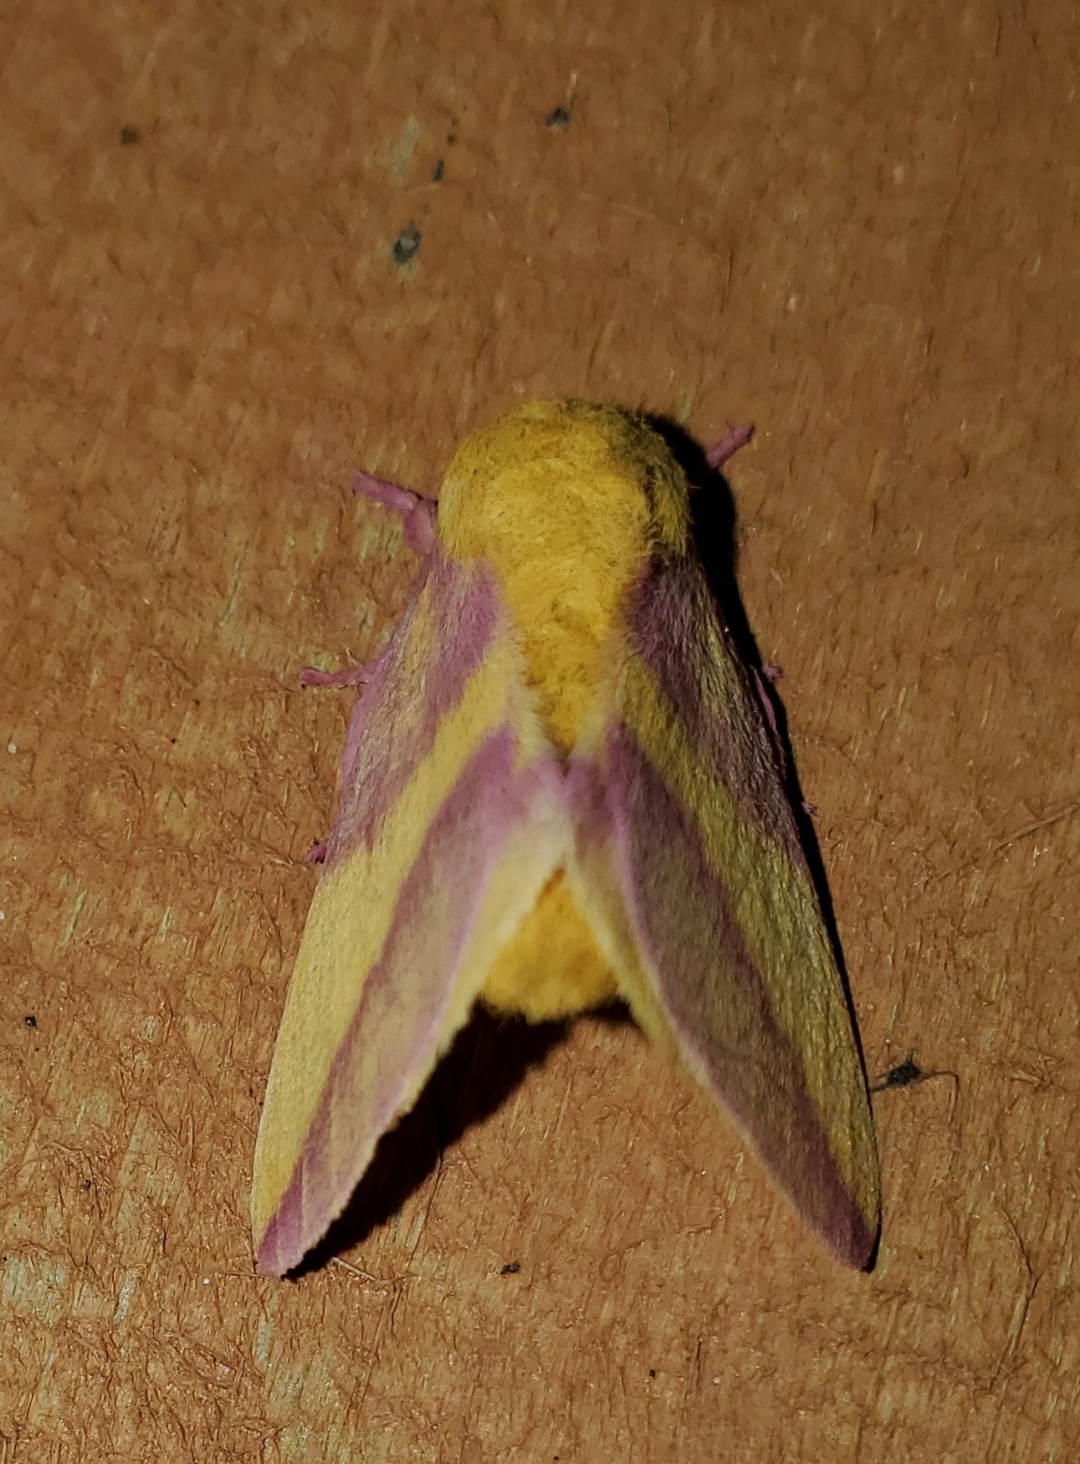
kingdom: Animalia
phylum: Arthropoda
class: Insecta
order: Lepidoptera
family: Saturniidae
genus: Dryocampa
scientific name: Dryocampa rubicunda
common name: Rosy maple moth
